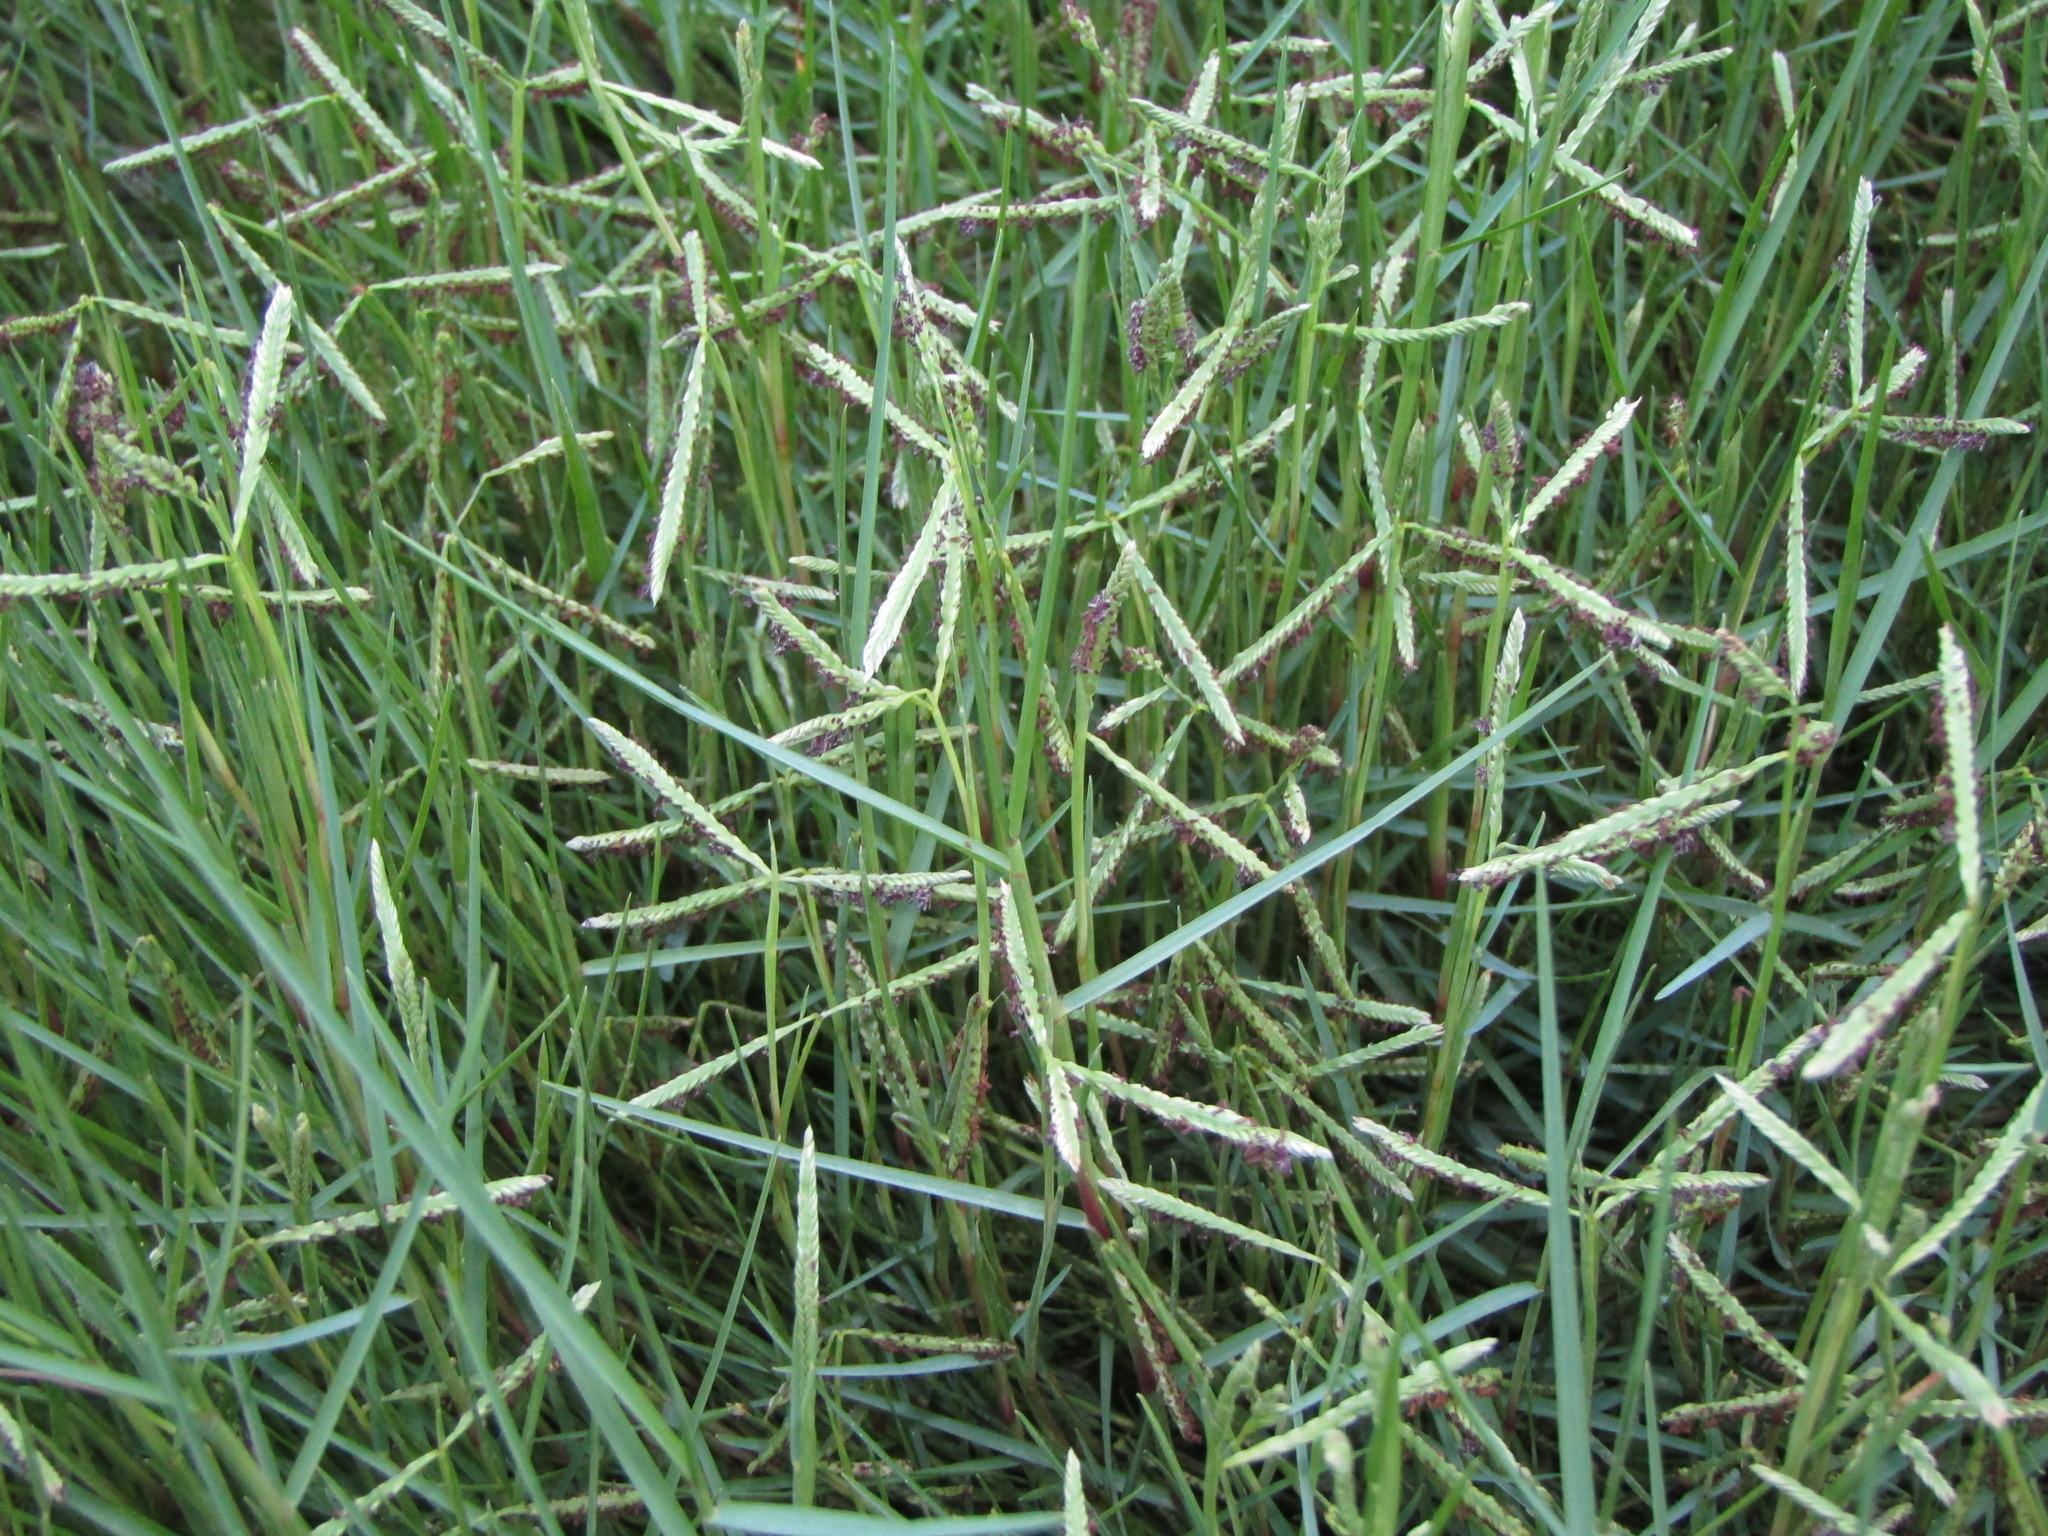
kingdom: Plantae
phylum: Tracheophyta
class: Liliopsida
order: Poales
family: Poaceae
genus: Paspalum
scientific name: Paspalum vaginatum
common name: Seashore paspalum
